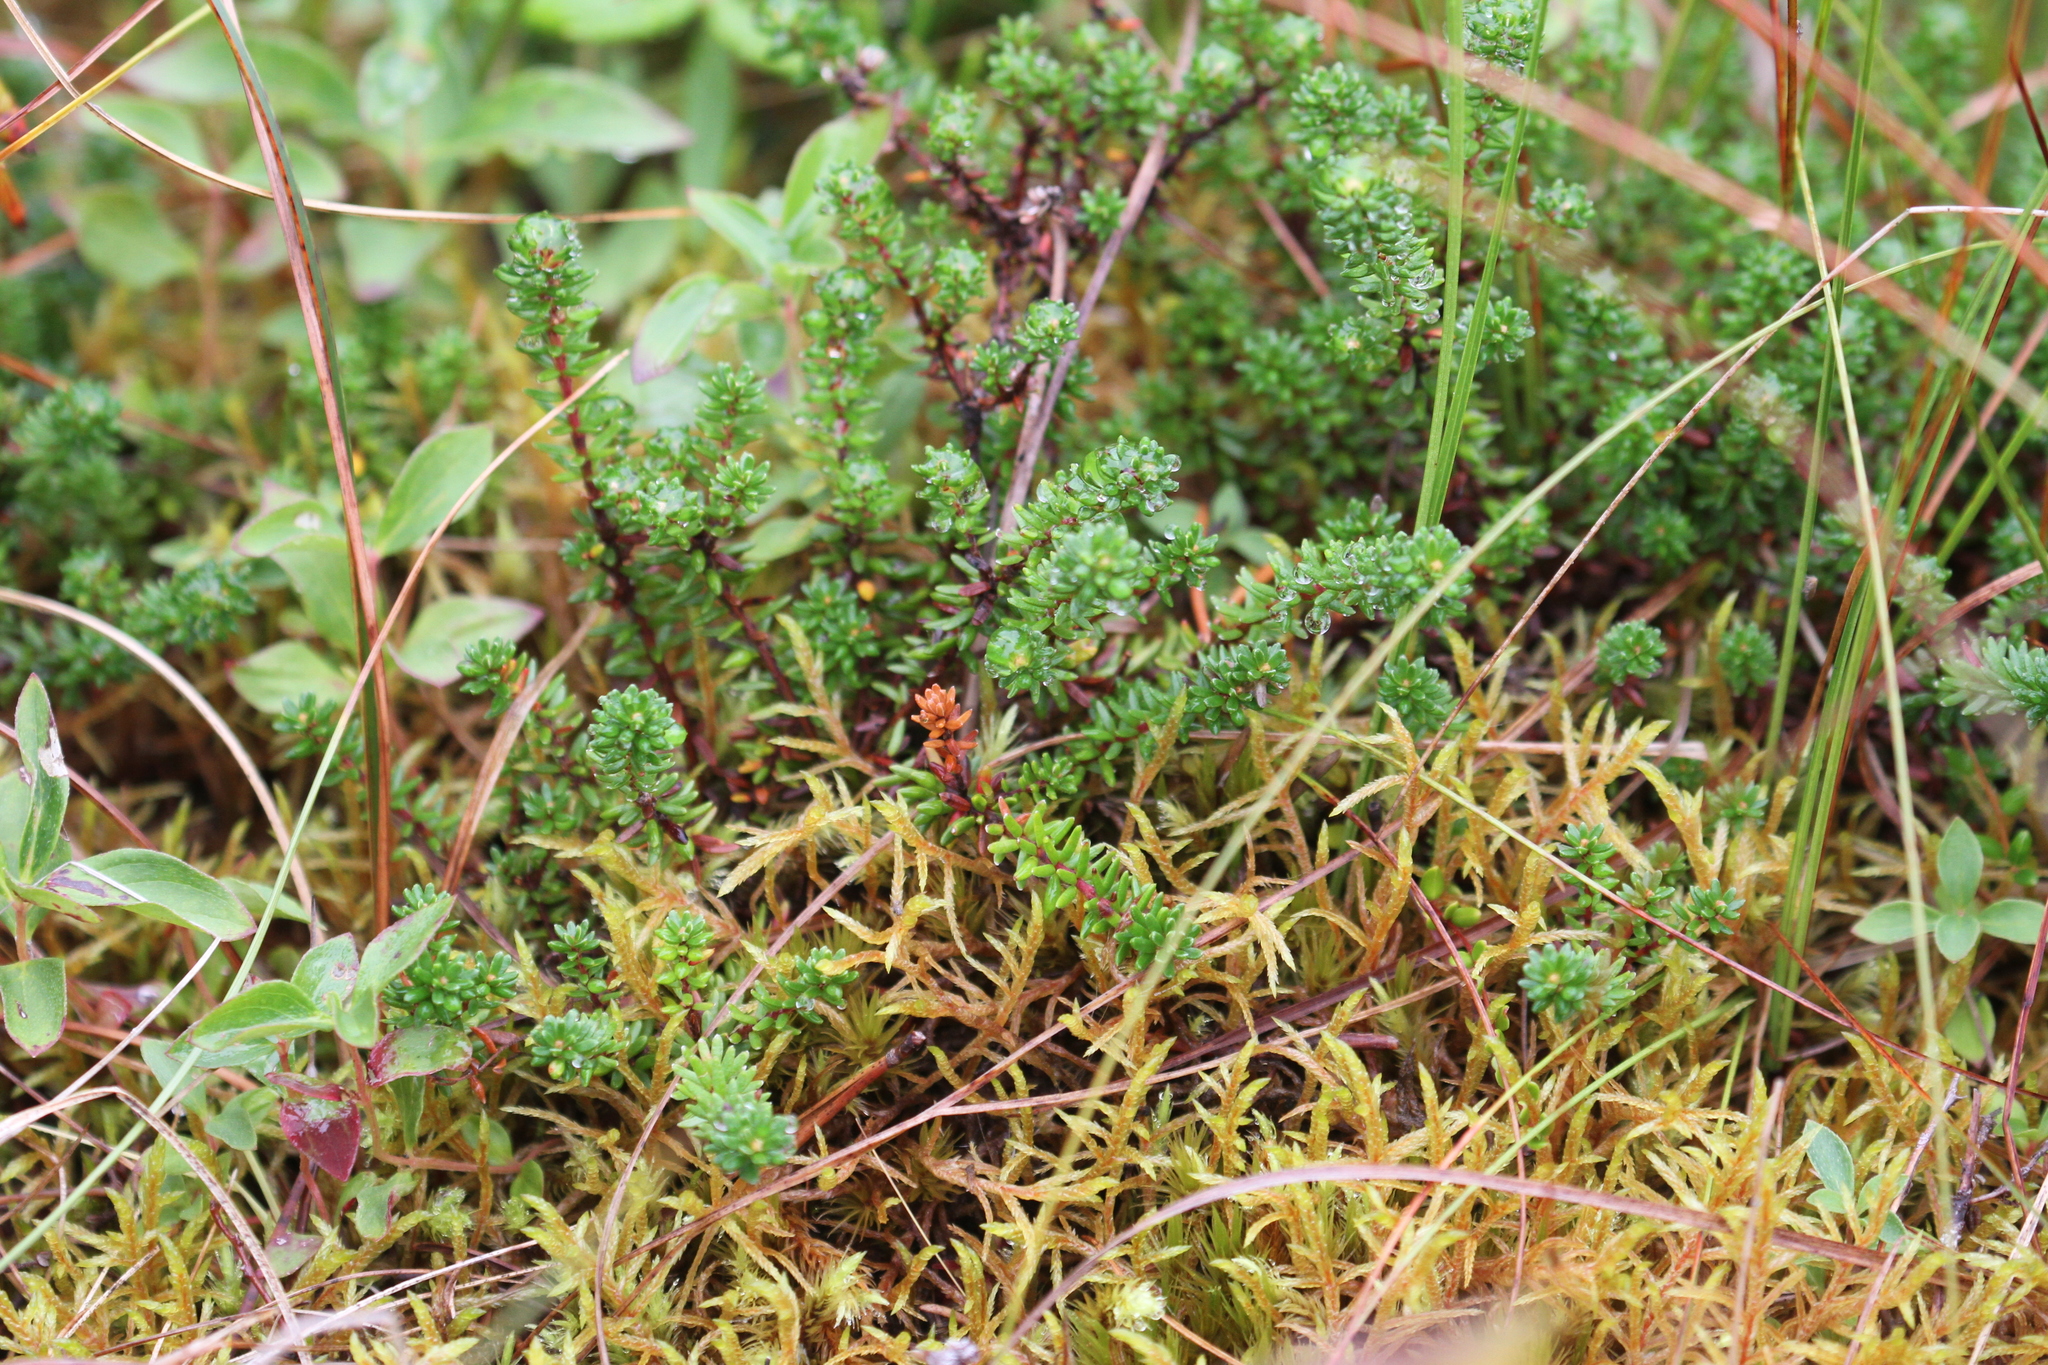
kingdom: Plantae
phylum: Tracheophyta
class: Magnoliopsida
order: Ericales
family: Ericaceae
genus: Empetrum
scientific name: Empetrum nigrum
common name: Black crowberry
